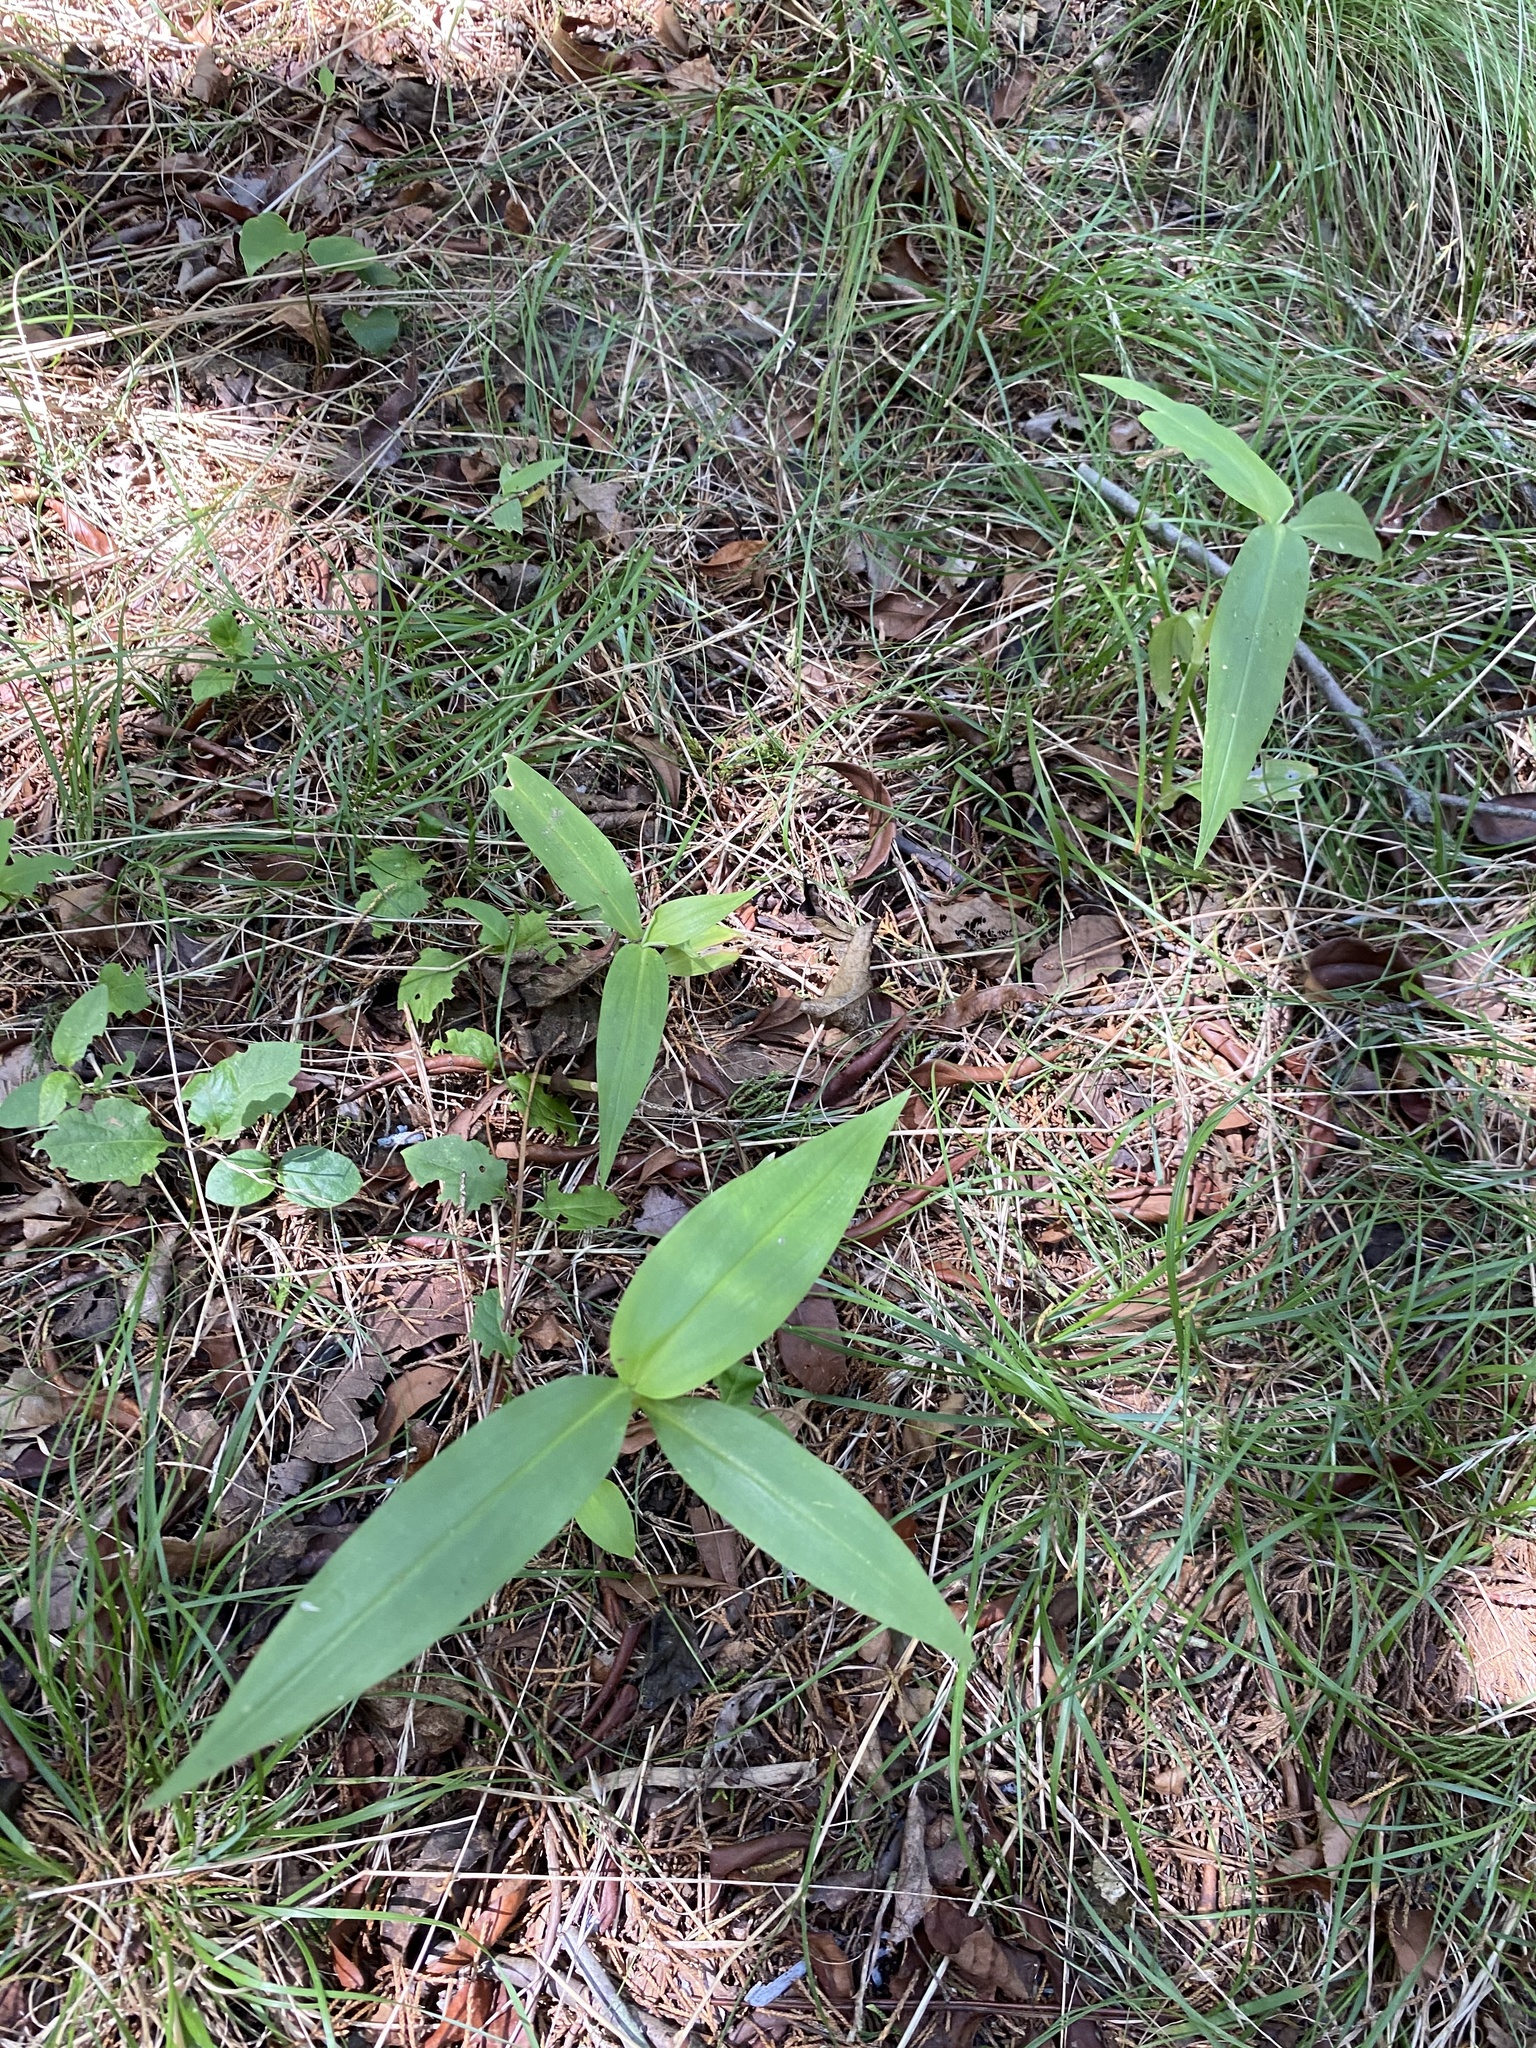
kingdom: Plantae
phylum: Tracheophyta
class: Liliopsida
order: Commelinales
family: Commelinaceae
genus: Commelina
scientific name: Commelina communis
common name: Asiatic dayflower
